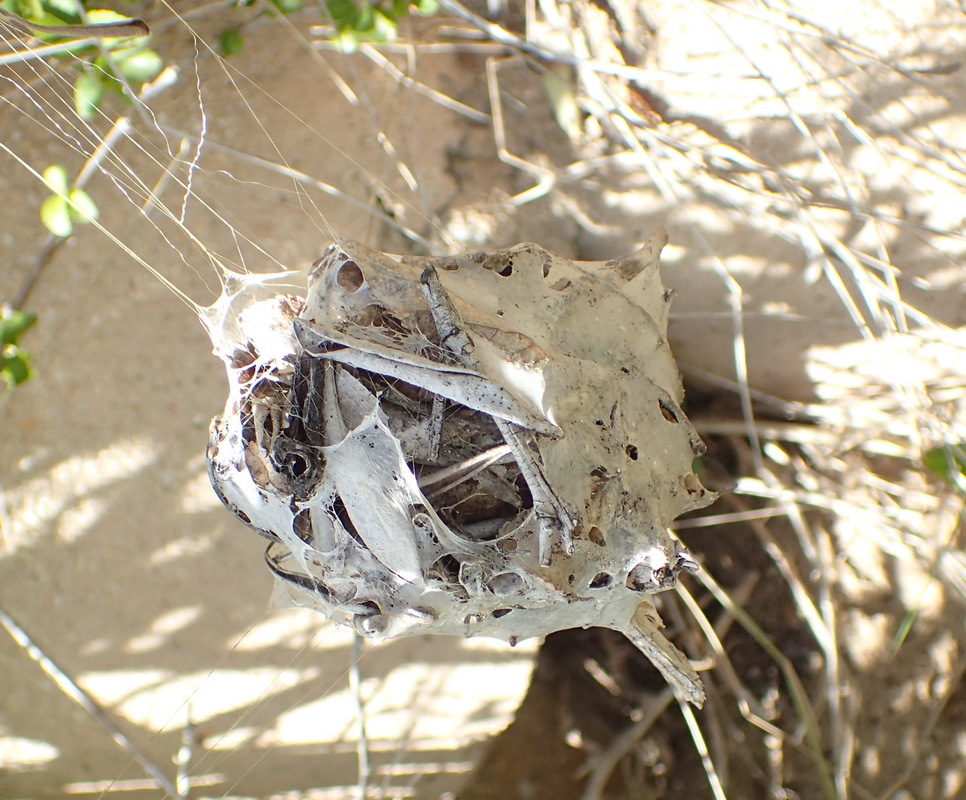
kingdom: Animalia
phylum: Arthropoda
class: Arachnida
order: Araneae
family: Sparassidae
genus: Palystes
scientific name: Palystes superciliosus
